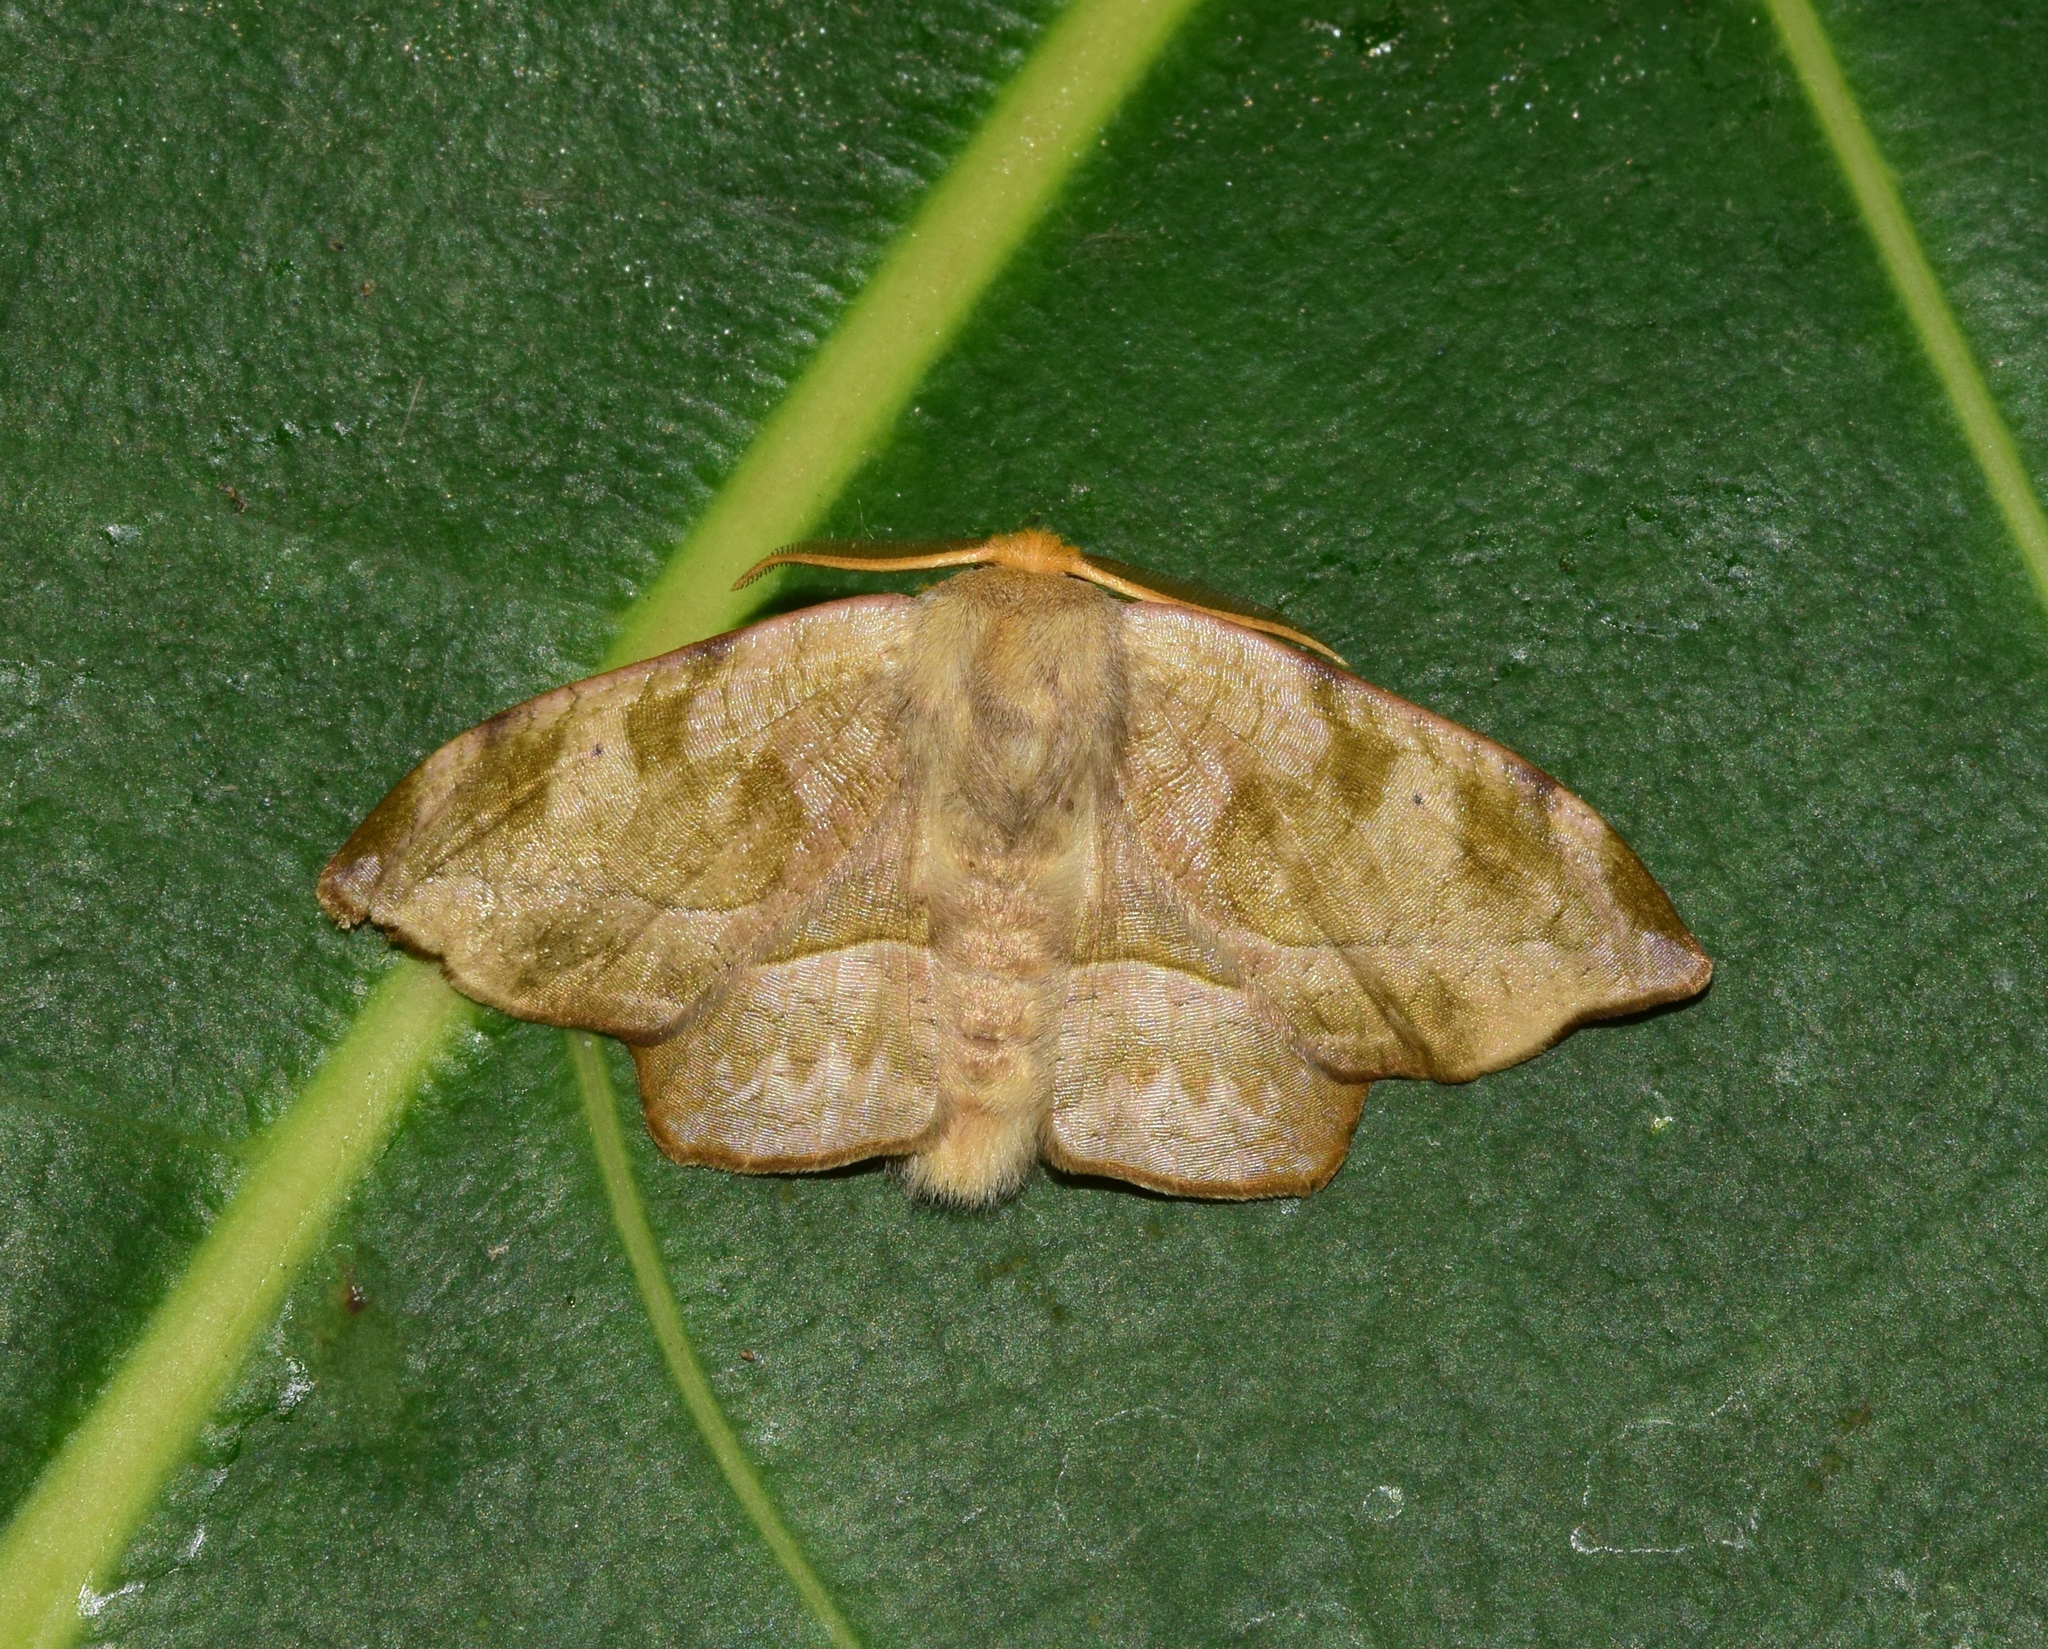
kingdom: Animalia
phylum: Arthropoda
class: Insecta
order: Lepidoptera
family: Drepanidae
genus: Negera
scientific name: Negera natalensis
